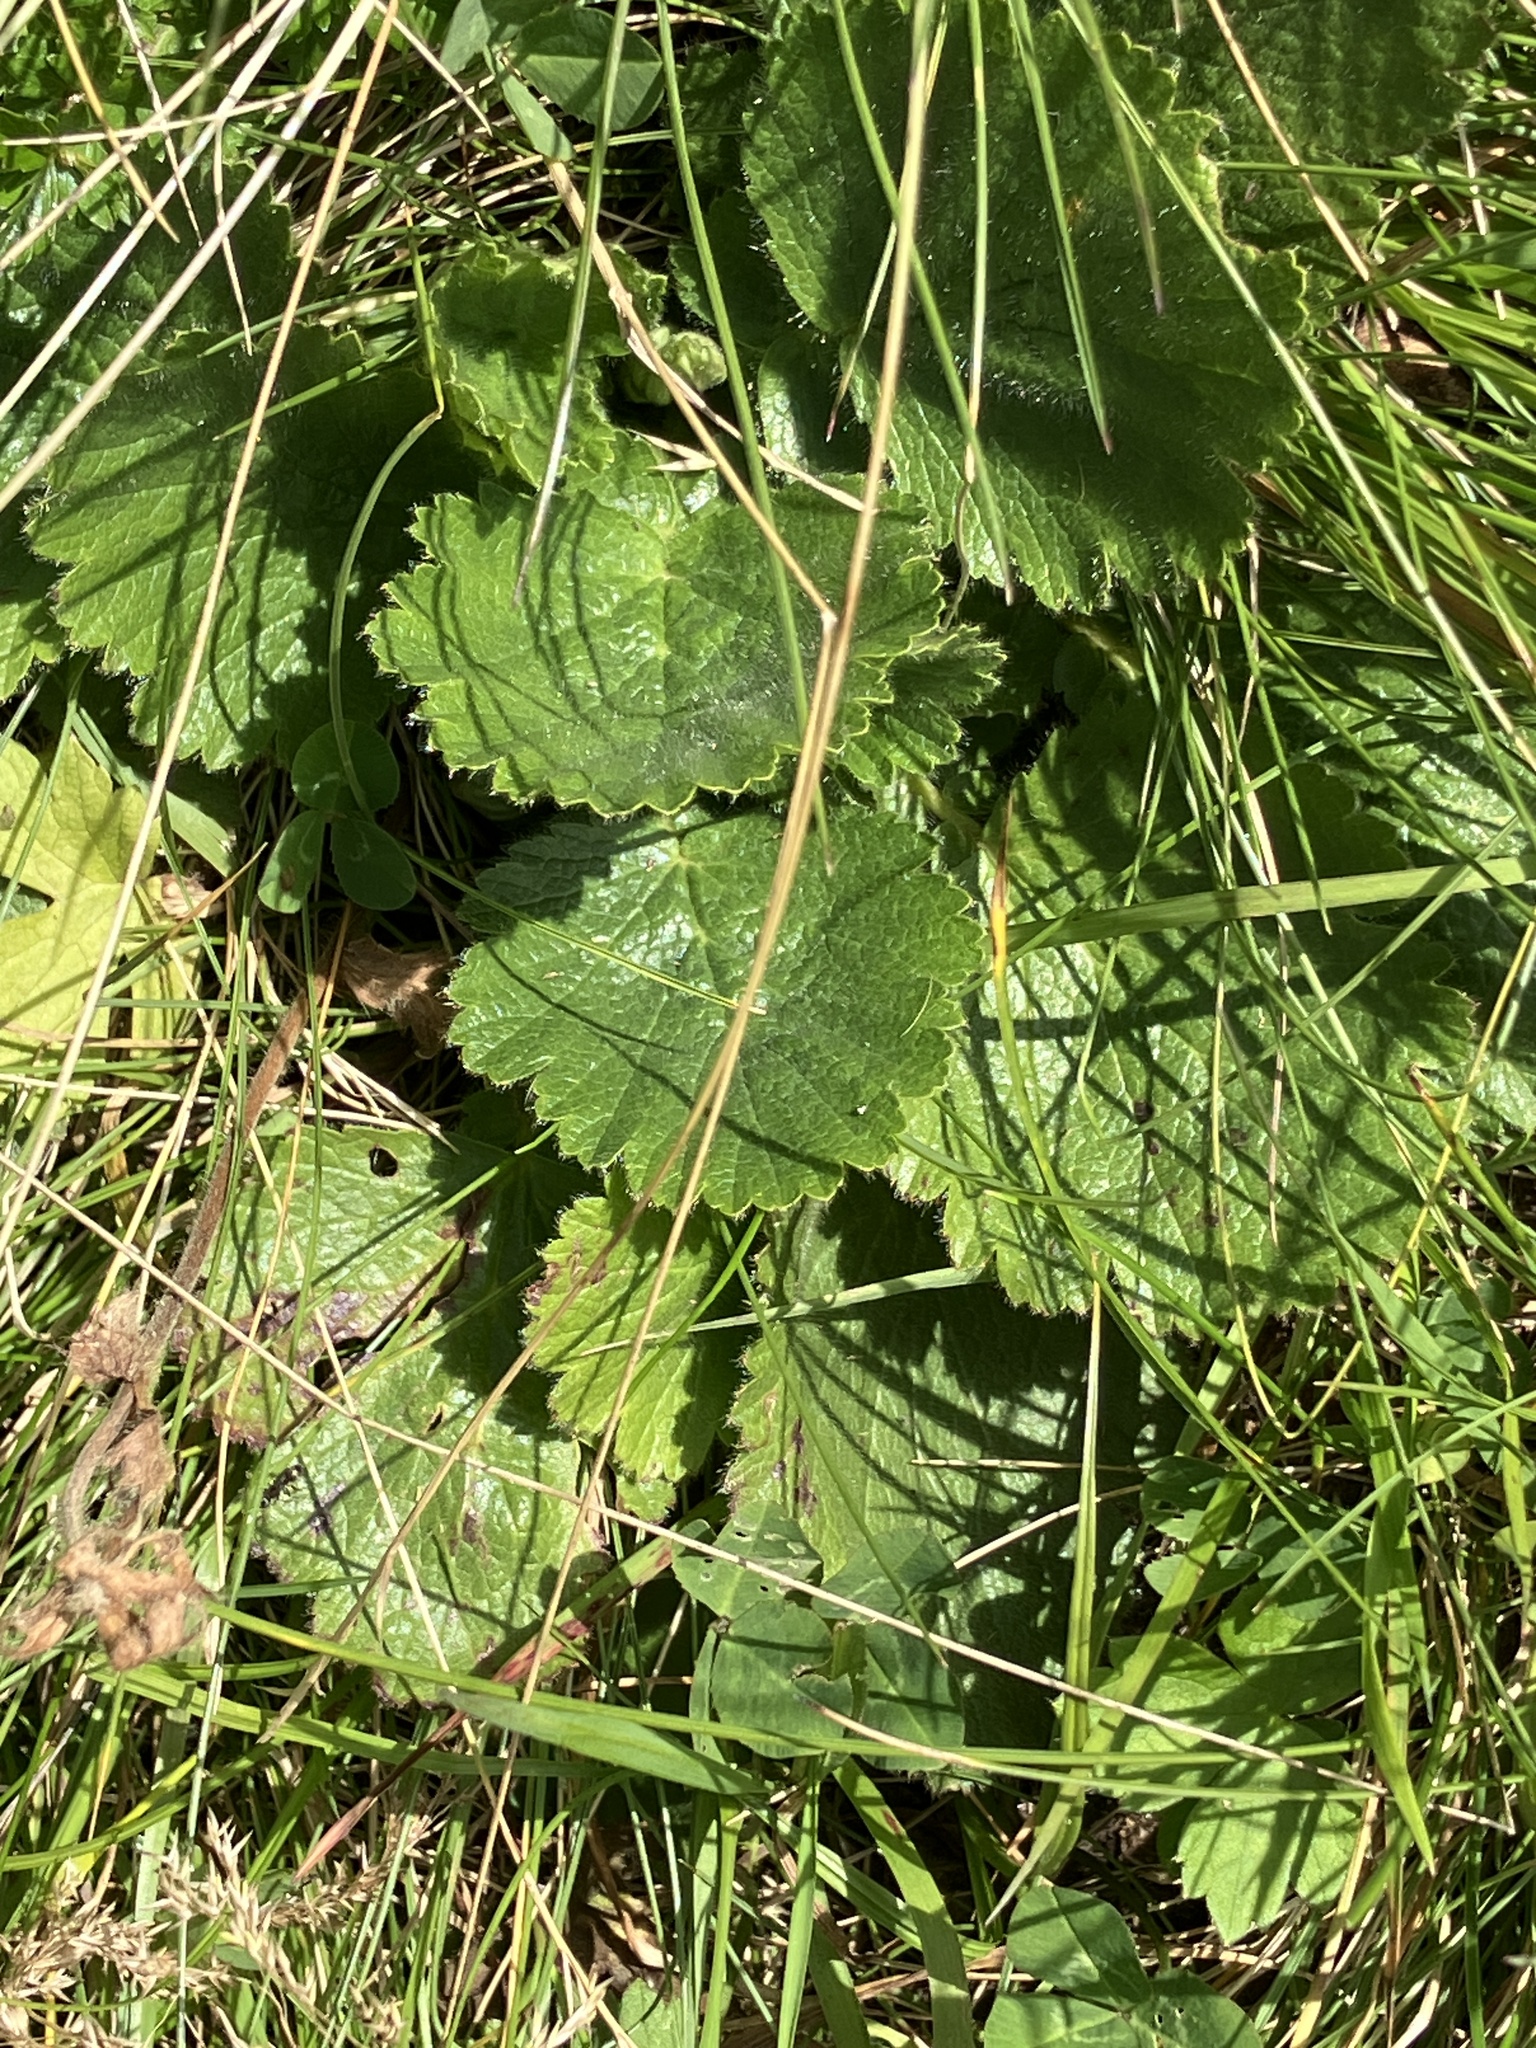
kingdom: Plantae
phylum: Tracheophyta
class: Magnoliopsida
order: Rosales
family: Rosaceae
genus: Geum
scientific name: Geum montanum
